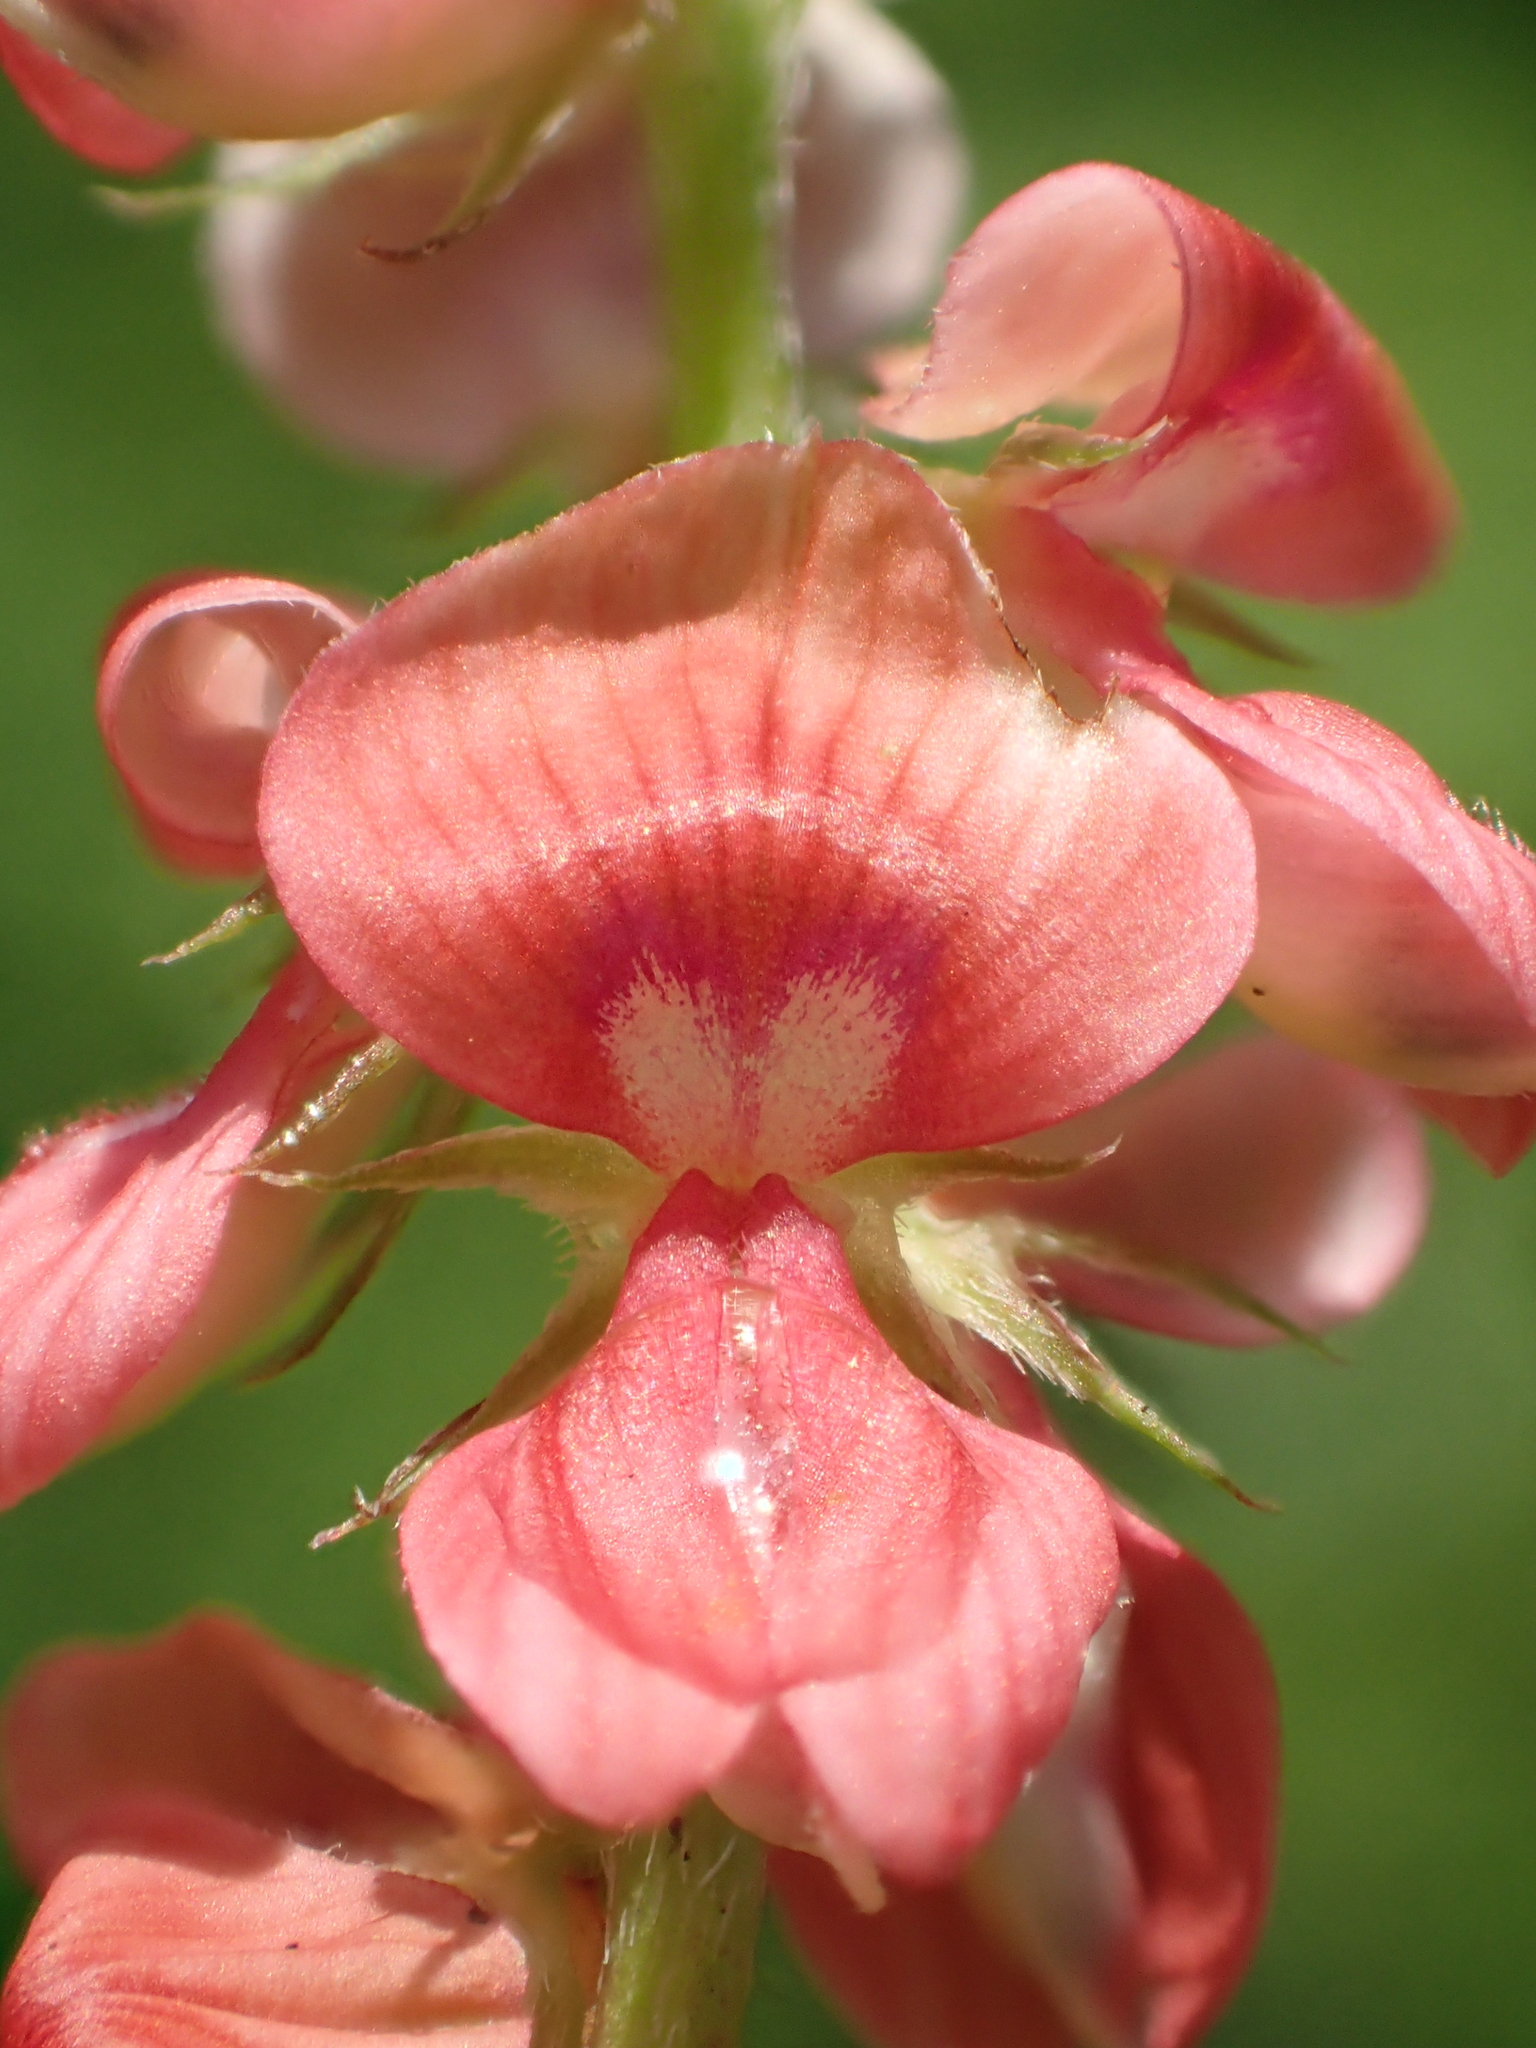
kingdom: Plantae
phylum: Tracheophyta
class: Magnoliopsida
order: Fabales
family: Fabaceae
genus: Indigofera
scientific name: Indigofera spicata
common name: Creeping indigo
